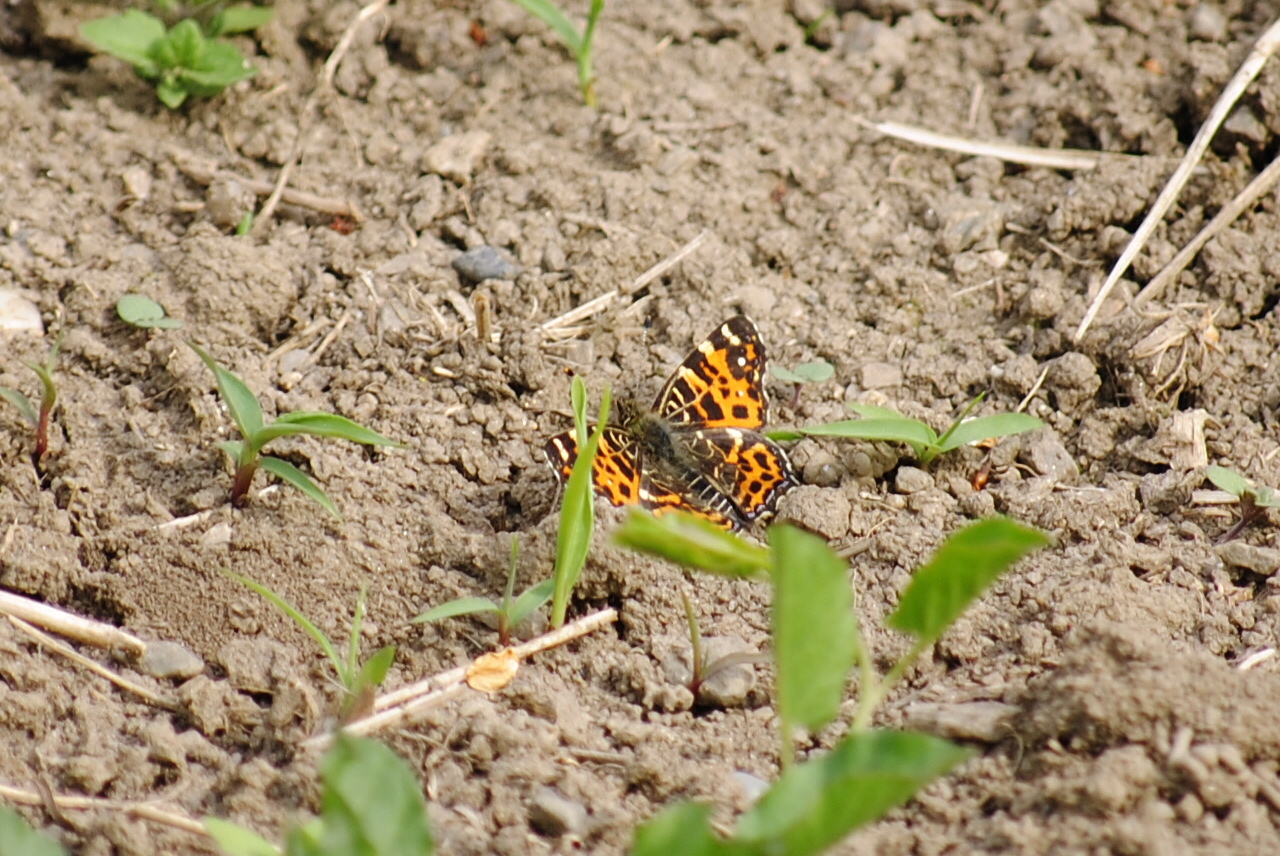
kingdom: Animalia
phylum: Arthropoda
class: Insecta
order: Lepidoptera
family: Nymphalidae
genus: Araschnia
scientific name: Araschnia levana
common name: Map butterfly
